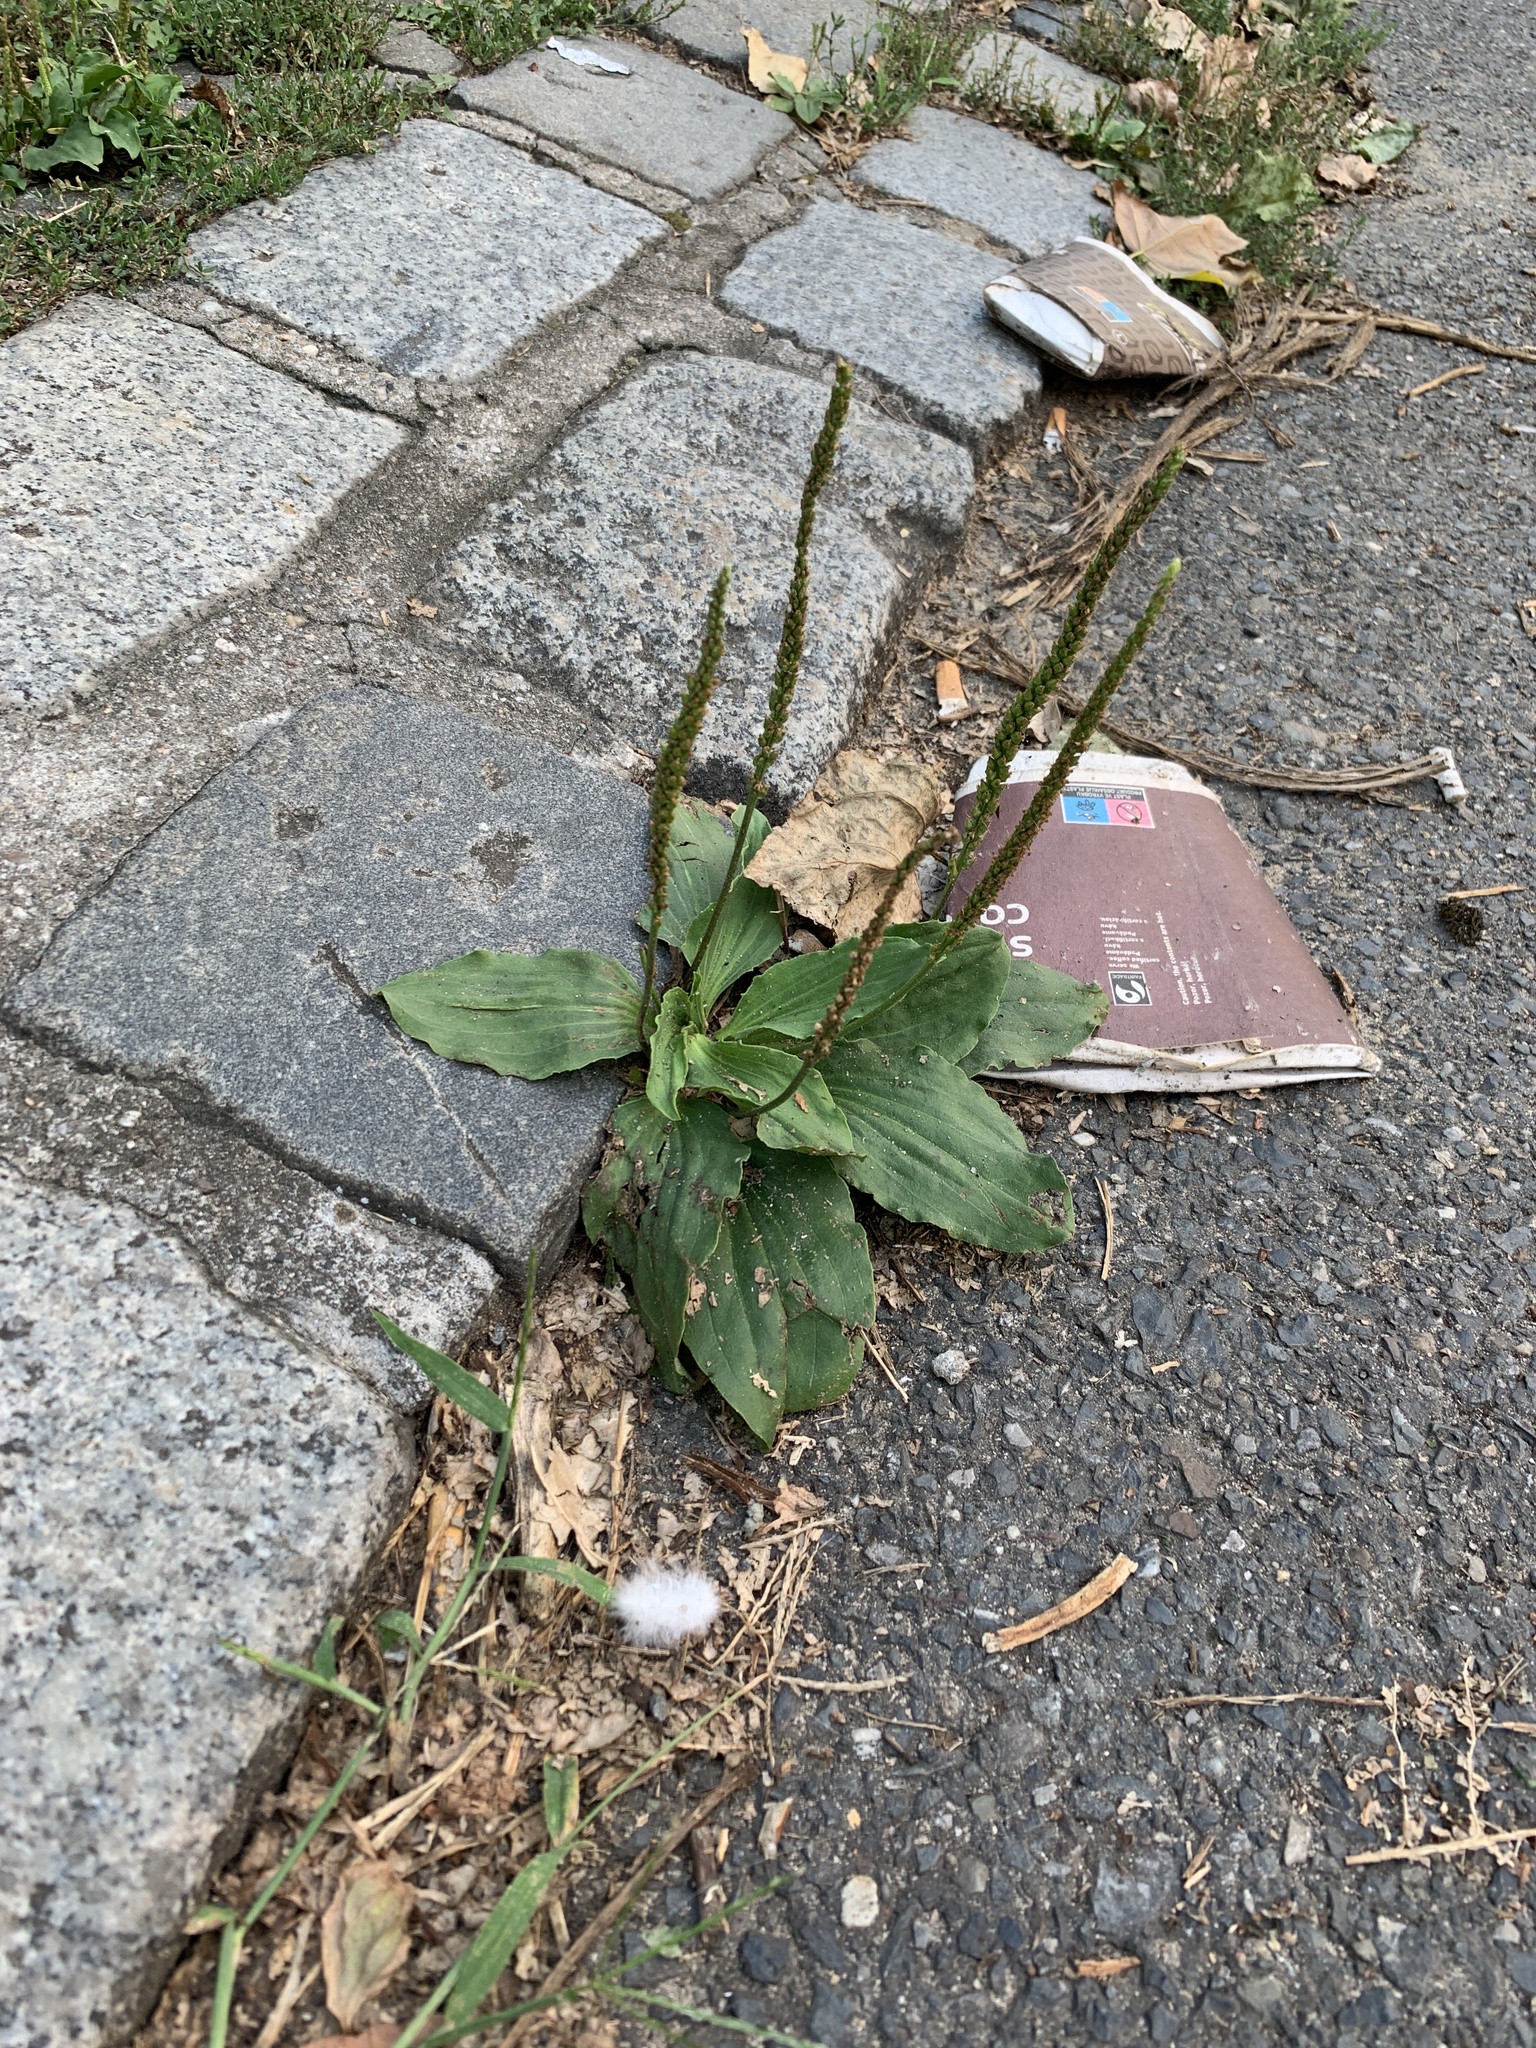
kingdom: Plantae
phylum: Tracheophyta
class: Magnoliopsida
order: Lamiales
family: Plantaginaceae
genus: Plantago
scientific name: Plantago major
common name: Common plantain
